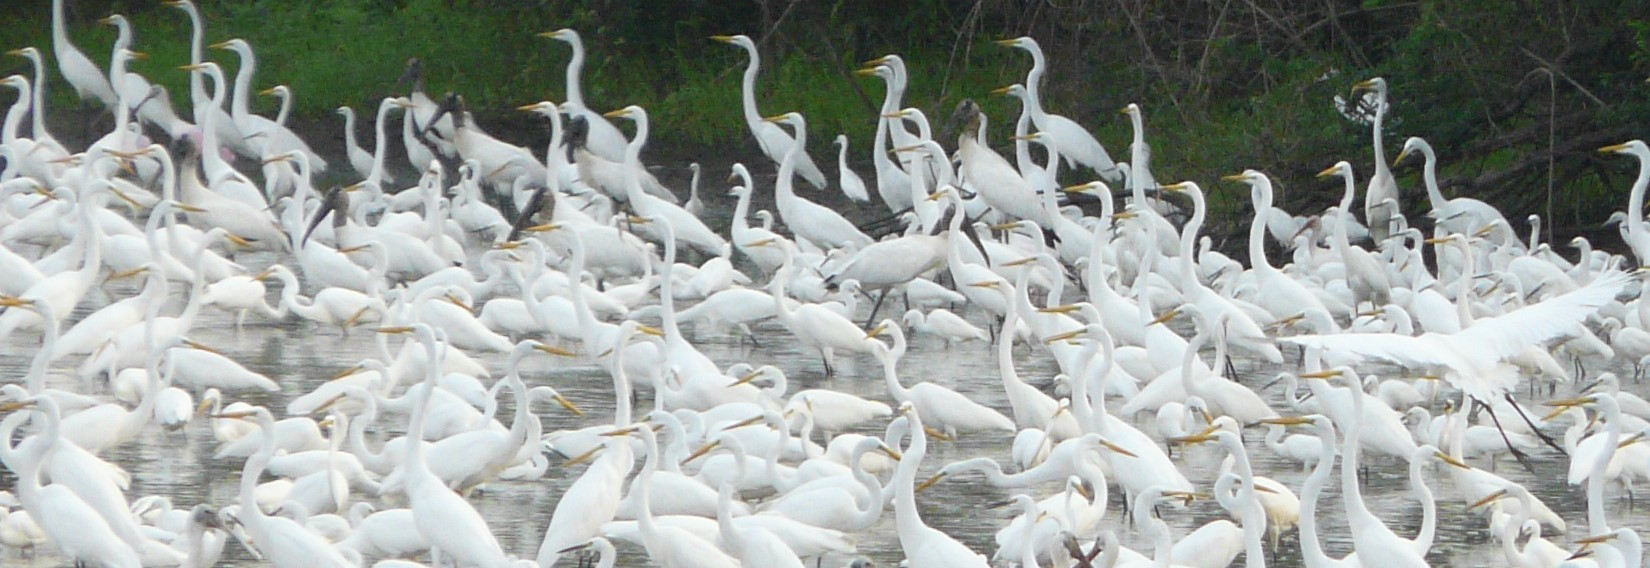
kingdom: Animalia
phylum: Chordata
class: Aves
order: Pelecaniformes
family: Ardeidae
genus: Ardea
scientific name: Ardea alba
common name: Great egret
